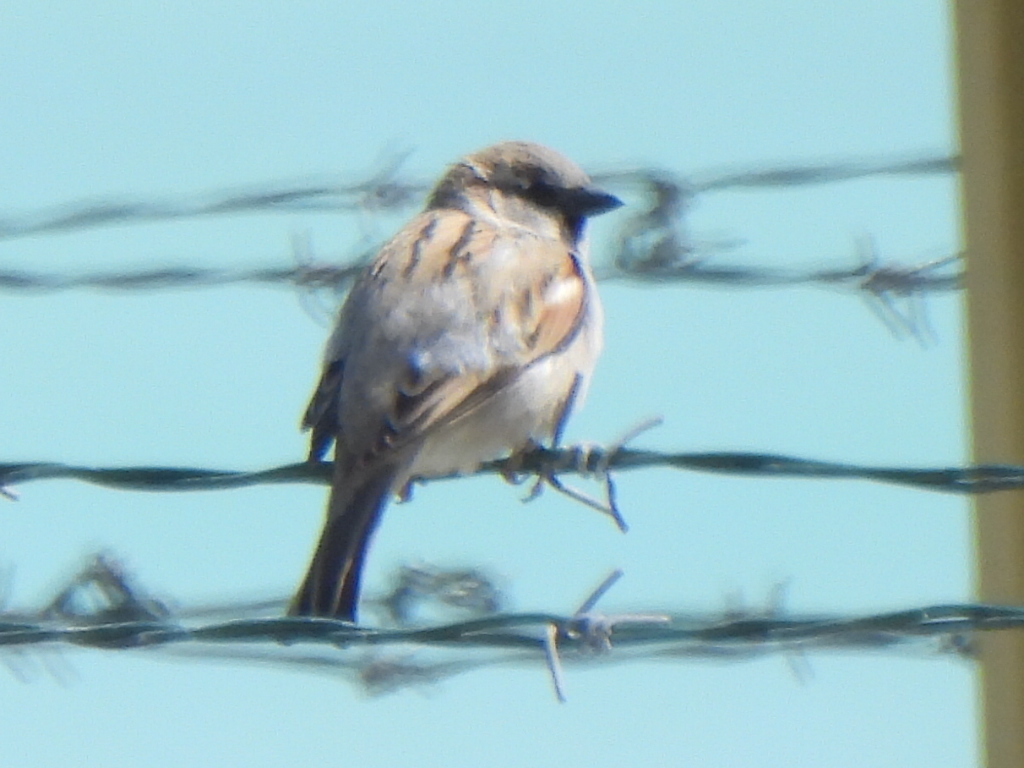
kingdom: Animalia
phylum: Chordata
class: Aves
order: Passeriformes
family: Passeridae
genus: Passer
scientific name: Passer domesticus
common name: House sparrow
